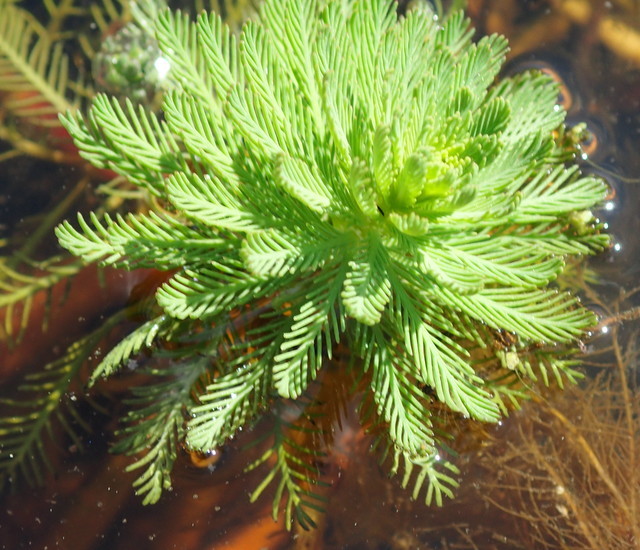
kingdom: Plantae
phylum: Tracheophyta
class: Magnoliopsida
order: Saxifragales
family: Haloragaceae
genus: Myriophyllum
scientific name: Myriophyllum aquaticum
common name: Parrot's feather
